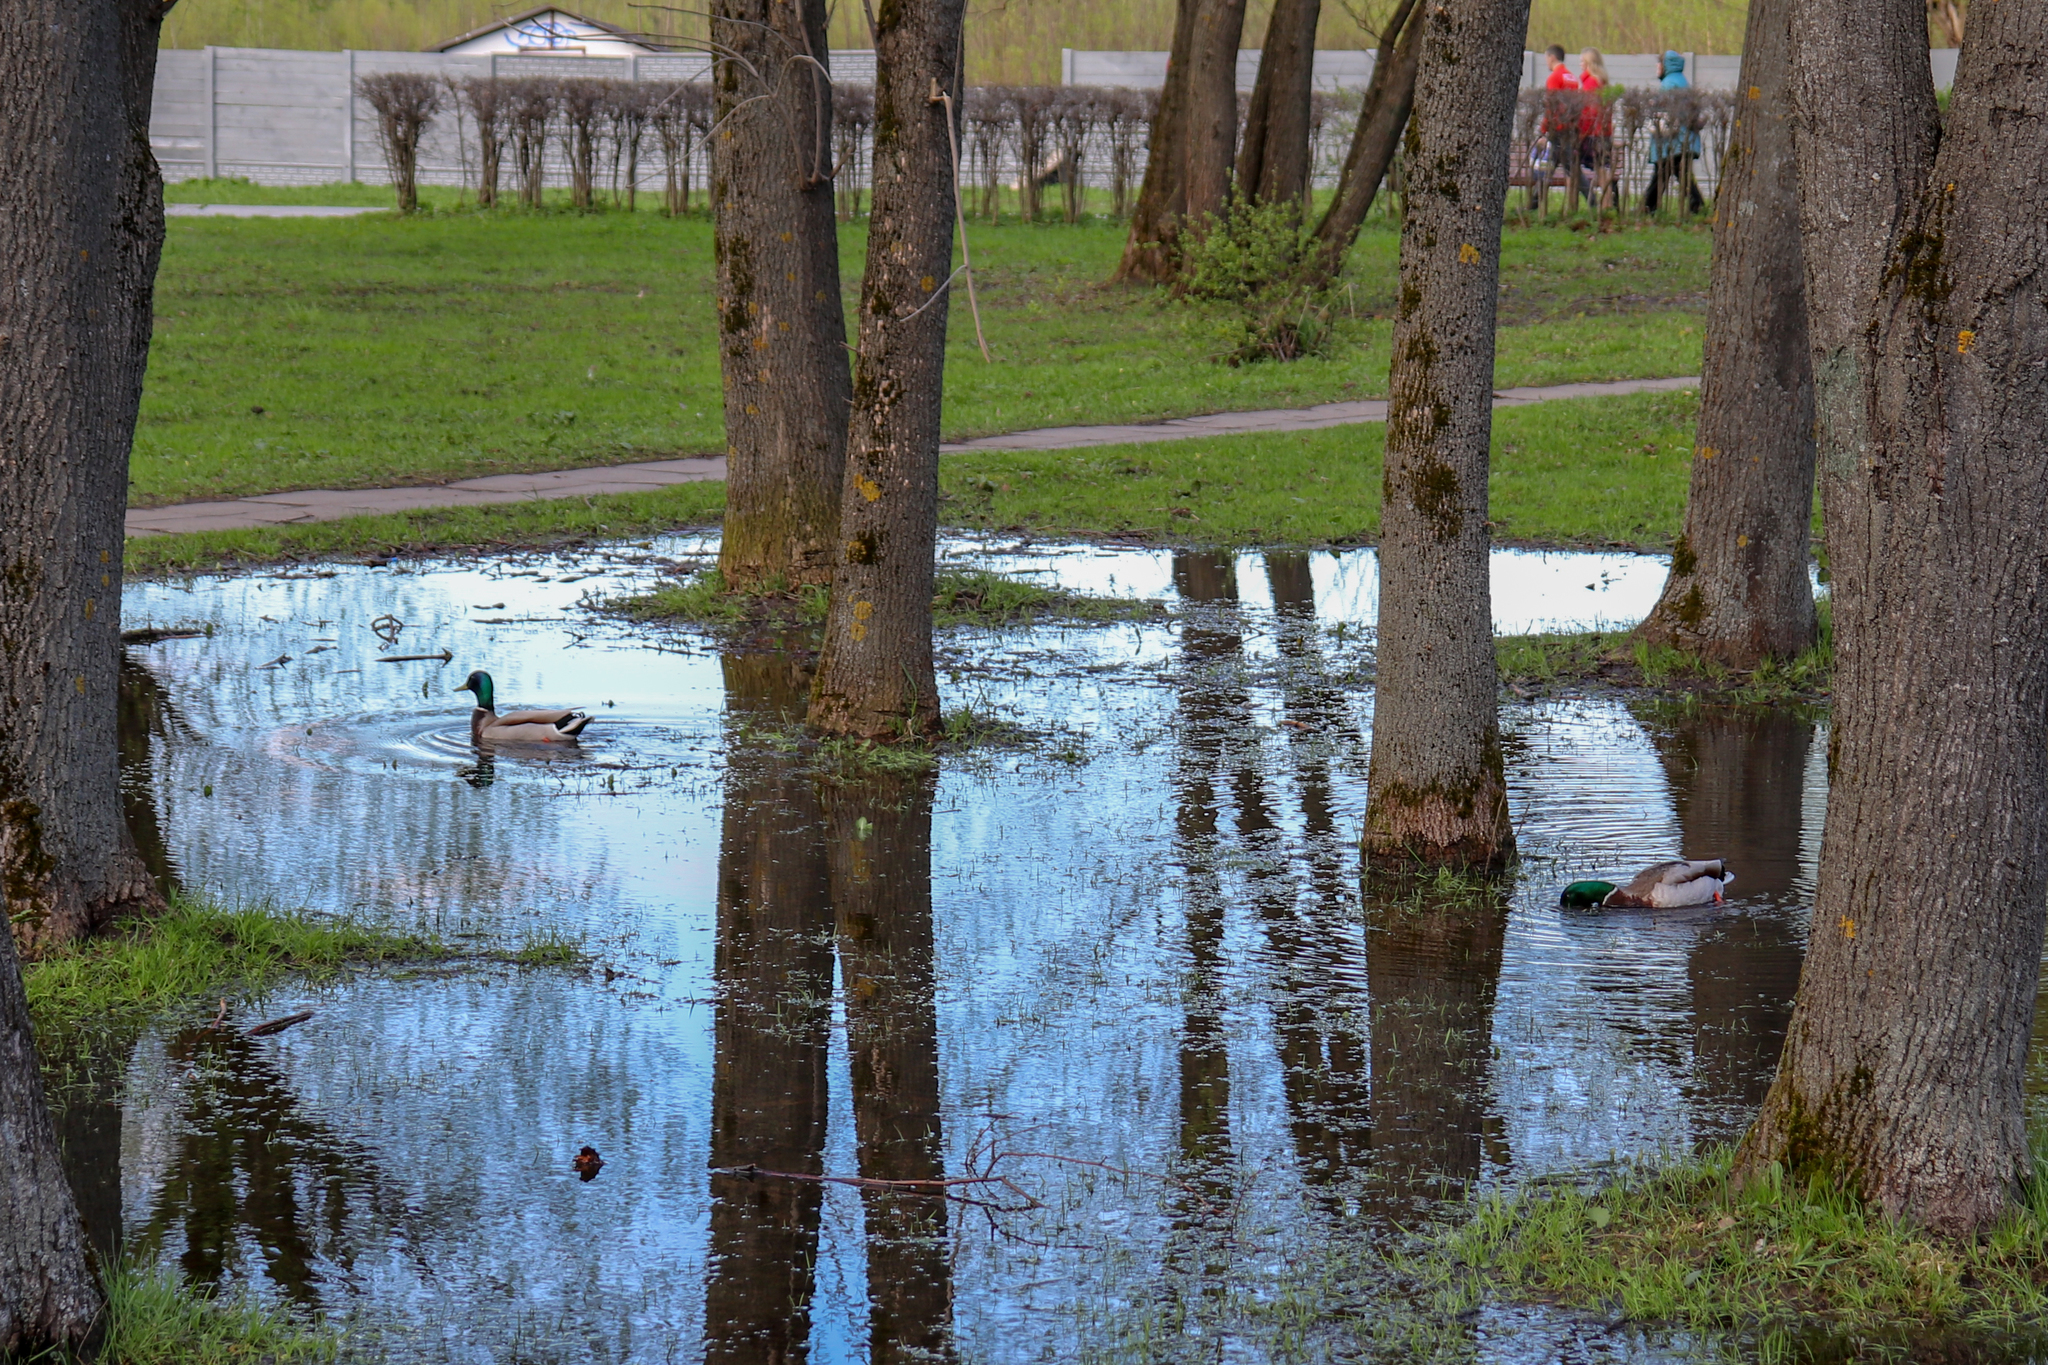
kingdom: Animalia
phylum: Chordata
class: Aves
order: Anseriformes
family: Anatidae
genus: Anas
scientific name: Anas platyrhynchos
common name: Mallard
